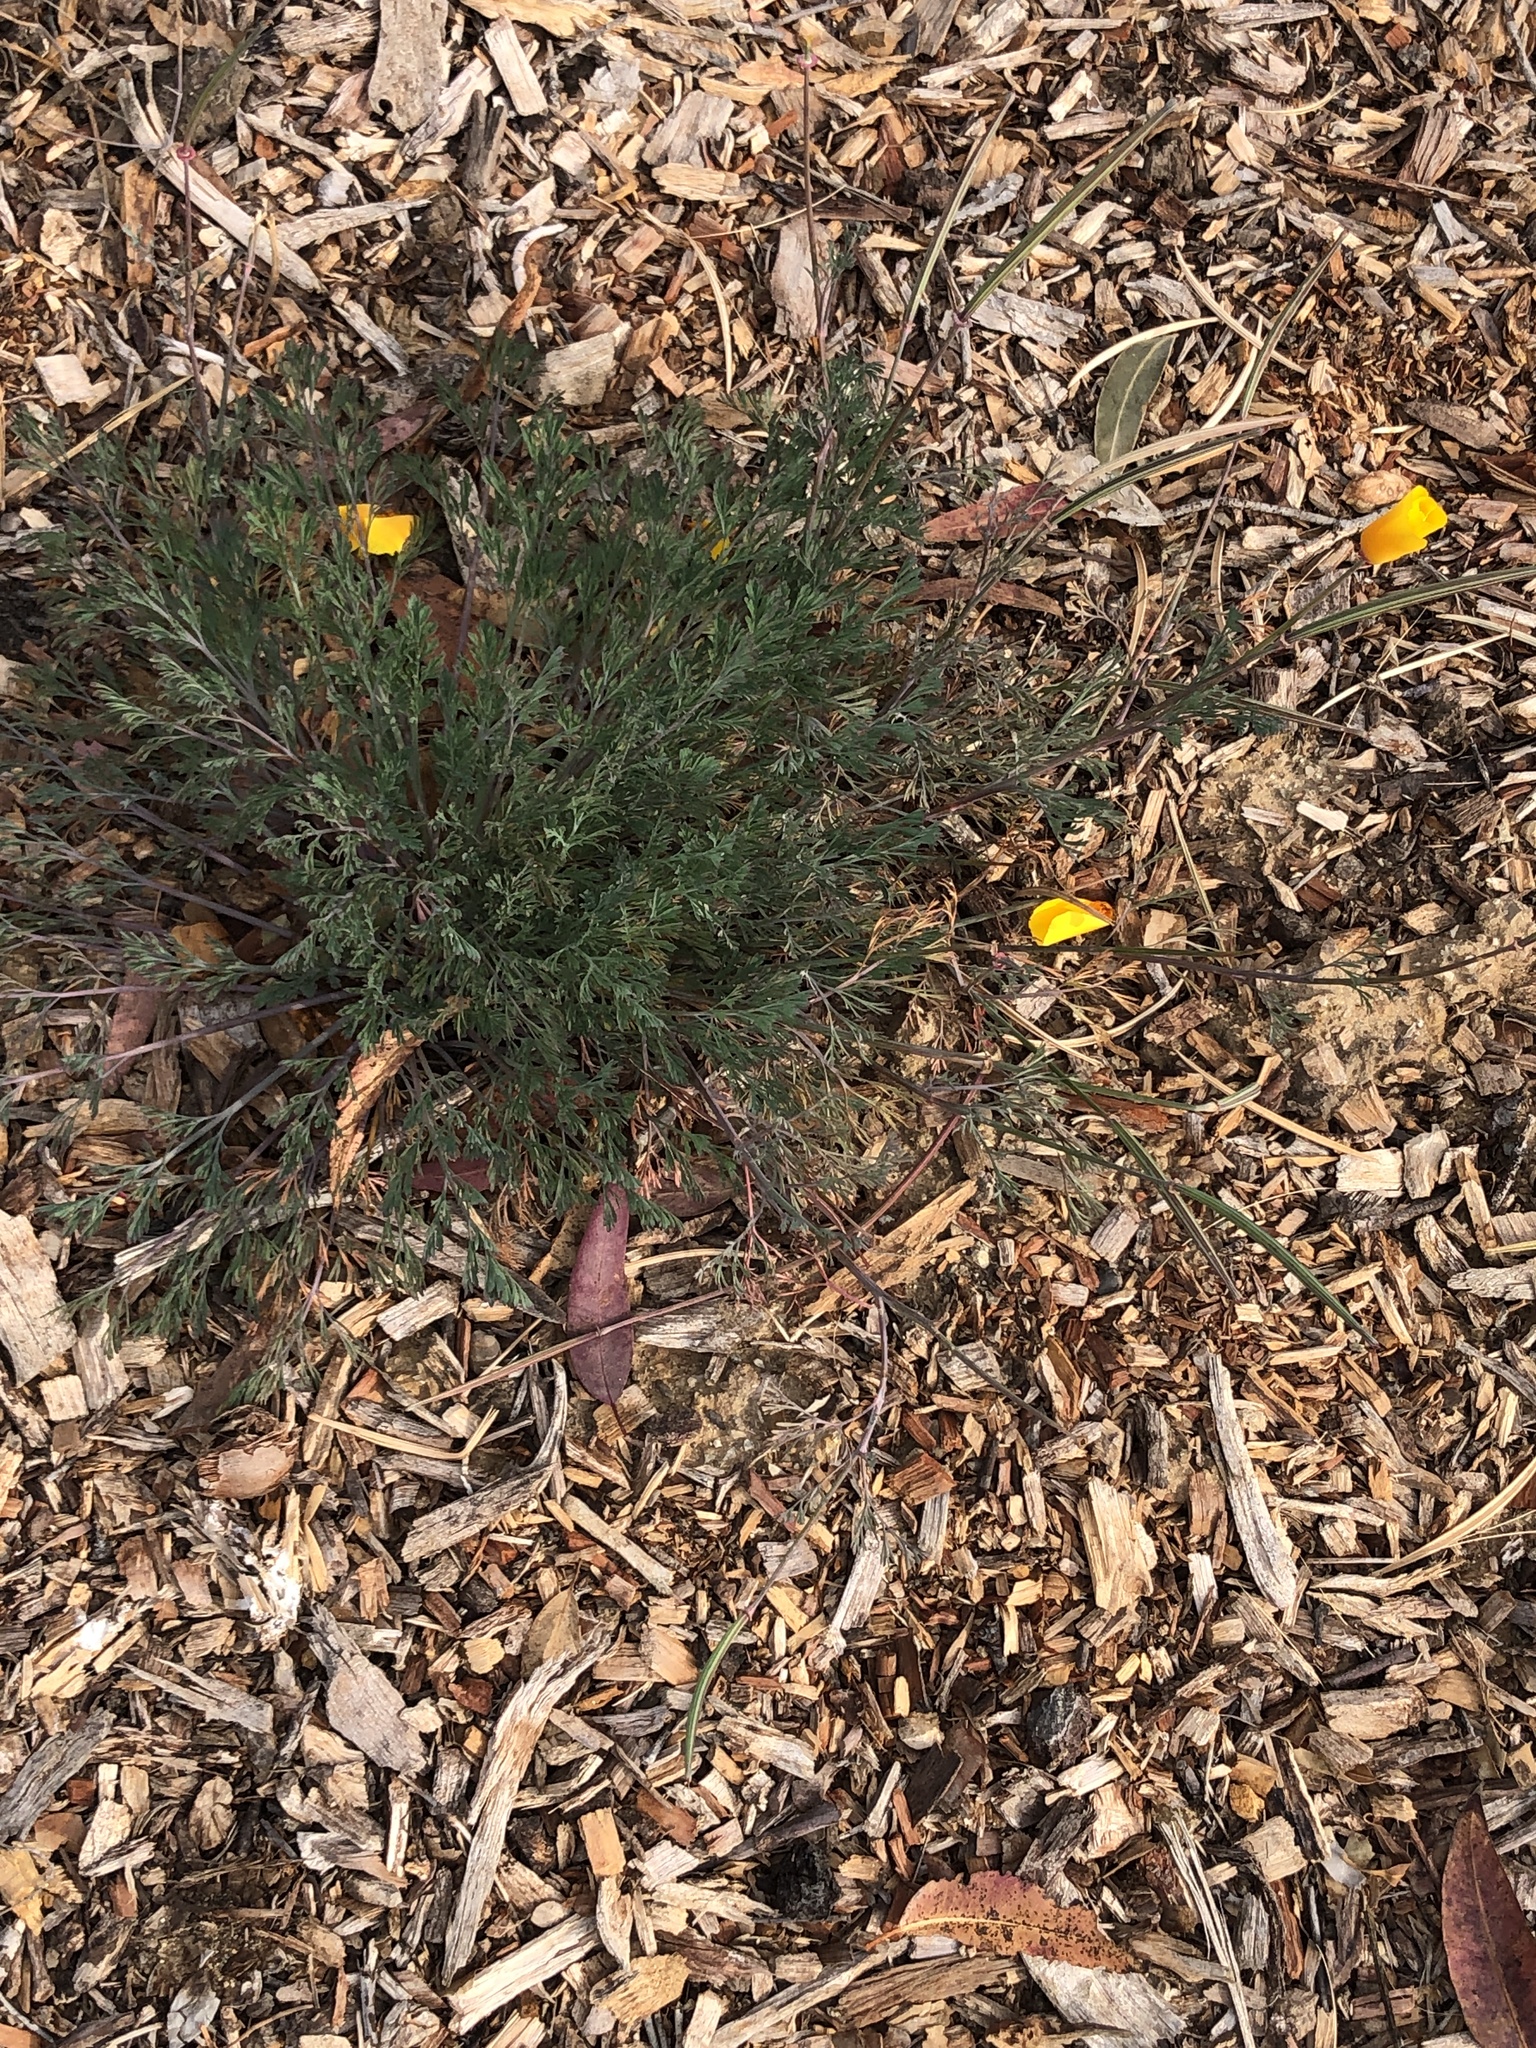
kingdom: Plantae
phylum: Tracheophyta
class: Magnoliopsida
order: Ranunculales
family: Papaveraceae
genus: Eschscholzia
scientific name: Eschscholzia californica
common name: California poppy
